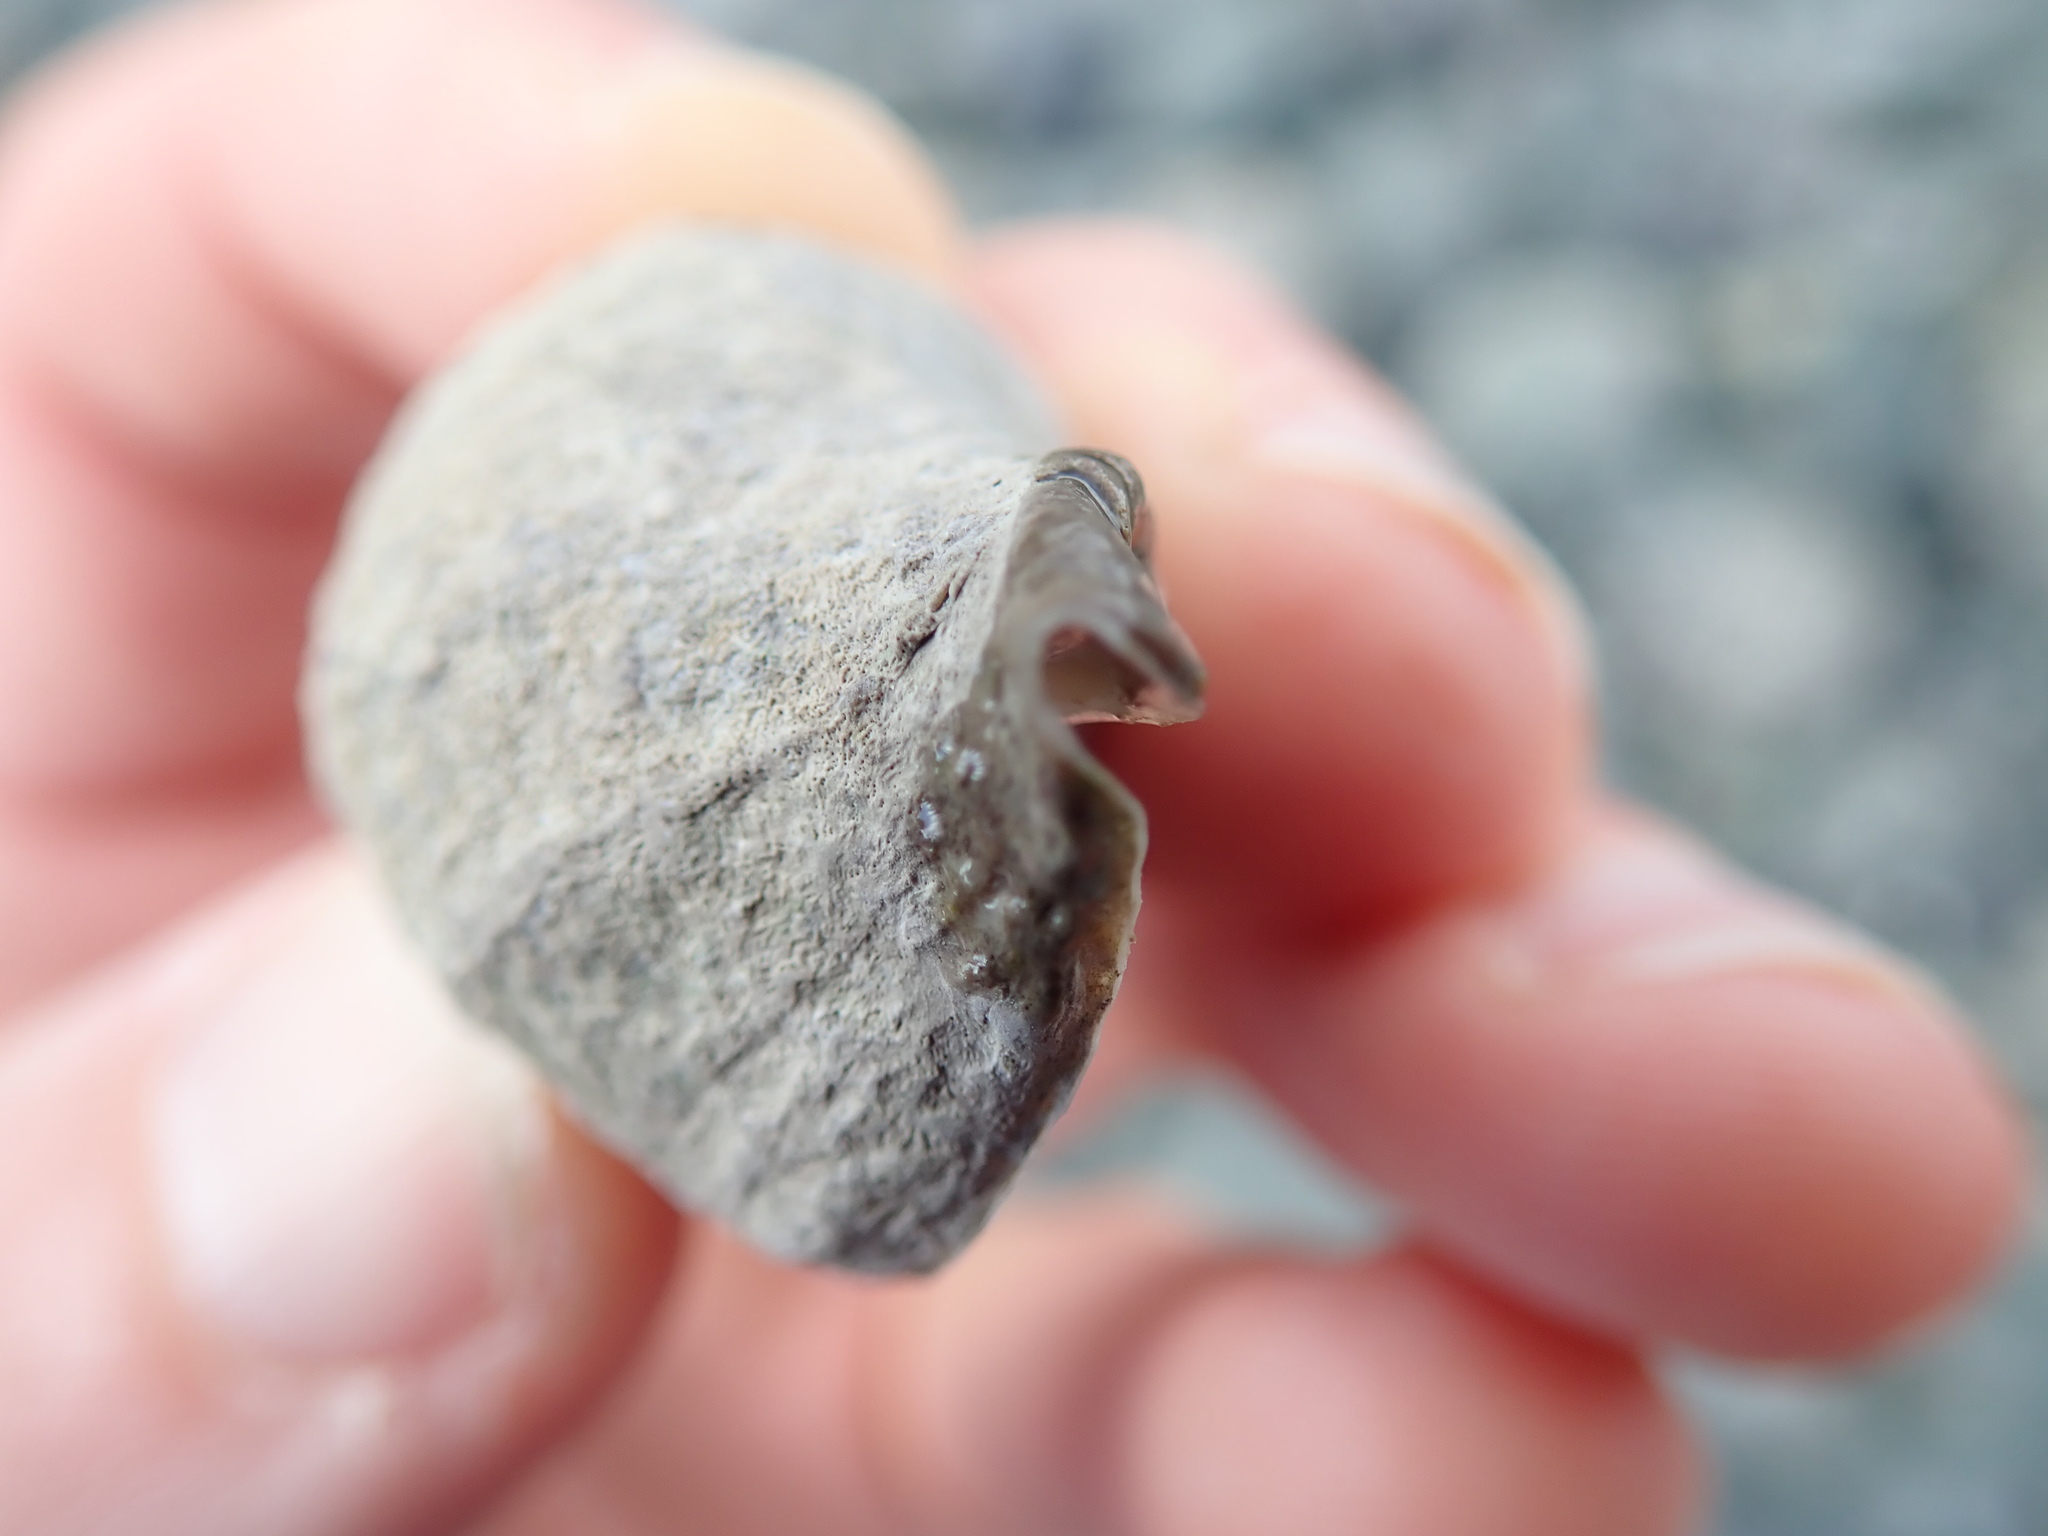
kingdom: Animalia
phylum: Mollusca
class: Gastropoda
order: Neogastropoda
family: Muricidae
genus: Nucella
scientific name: Nucella lamellosa
